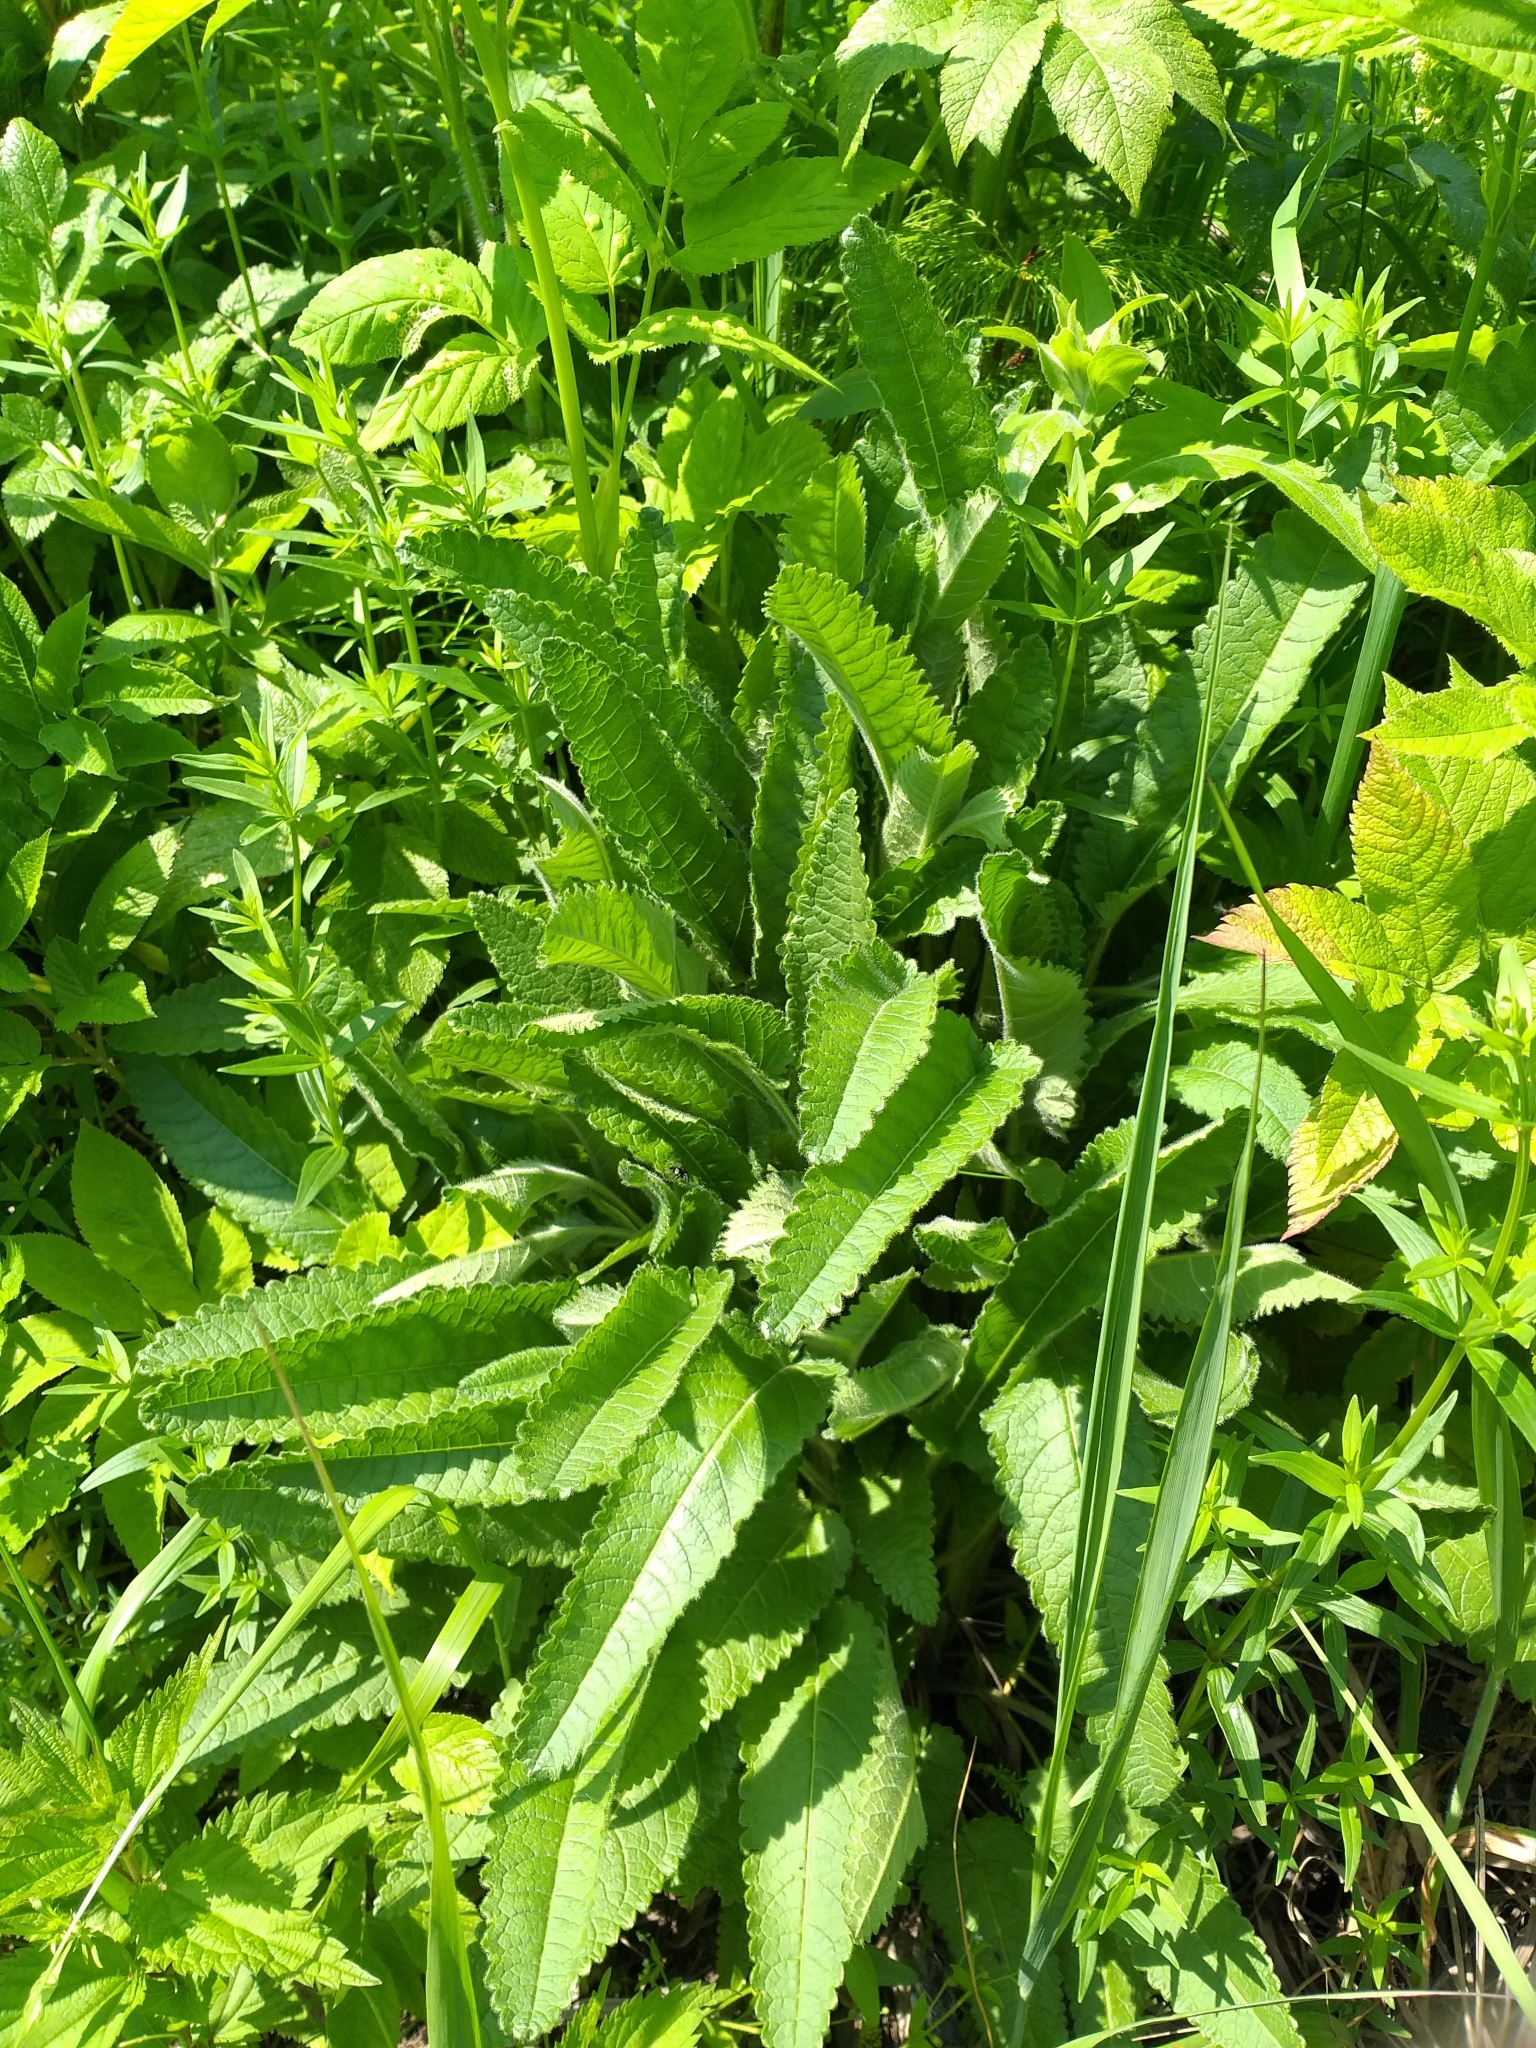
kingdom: Plantae
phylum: Tracheophyta
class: Magnoliopsida
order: Lamiales
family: Lamiaceae
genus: Betonica
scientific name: Betonica officinalis
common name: Bishop's-wort
